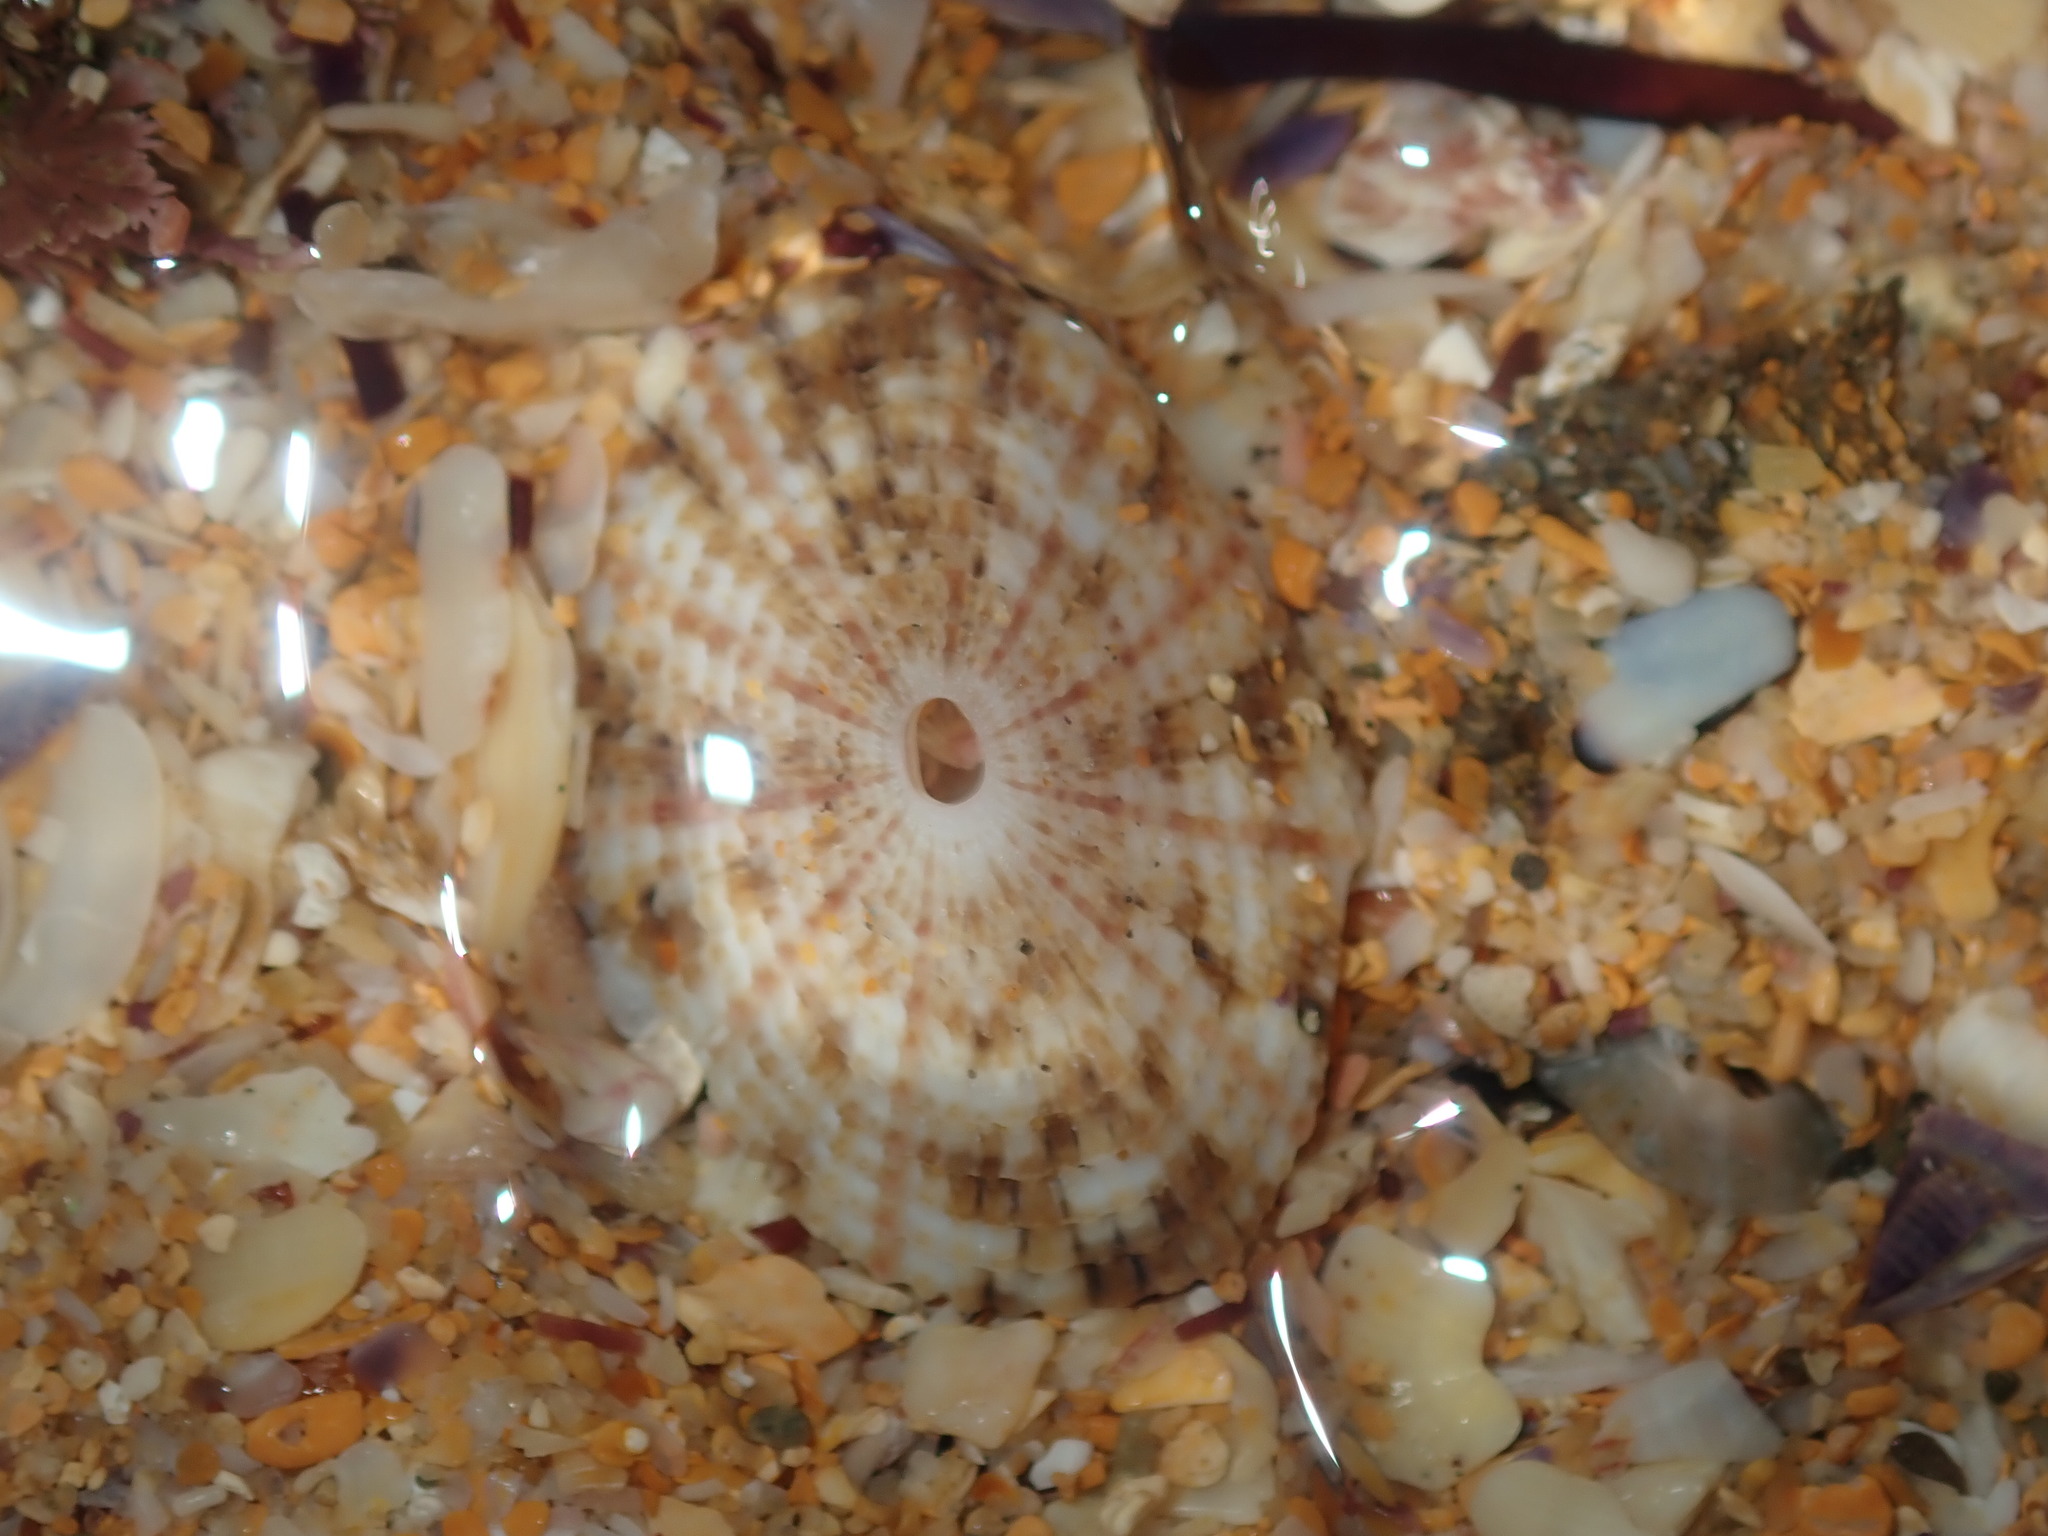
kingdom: Animalia
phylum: Mollusca
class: Gastropoda
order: Lepetellida
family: Fissurellidae
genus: Diodora
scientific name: Diodora lineata
